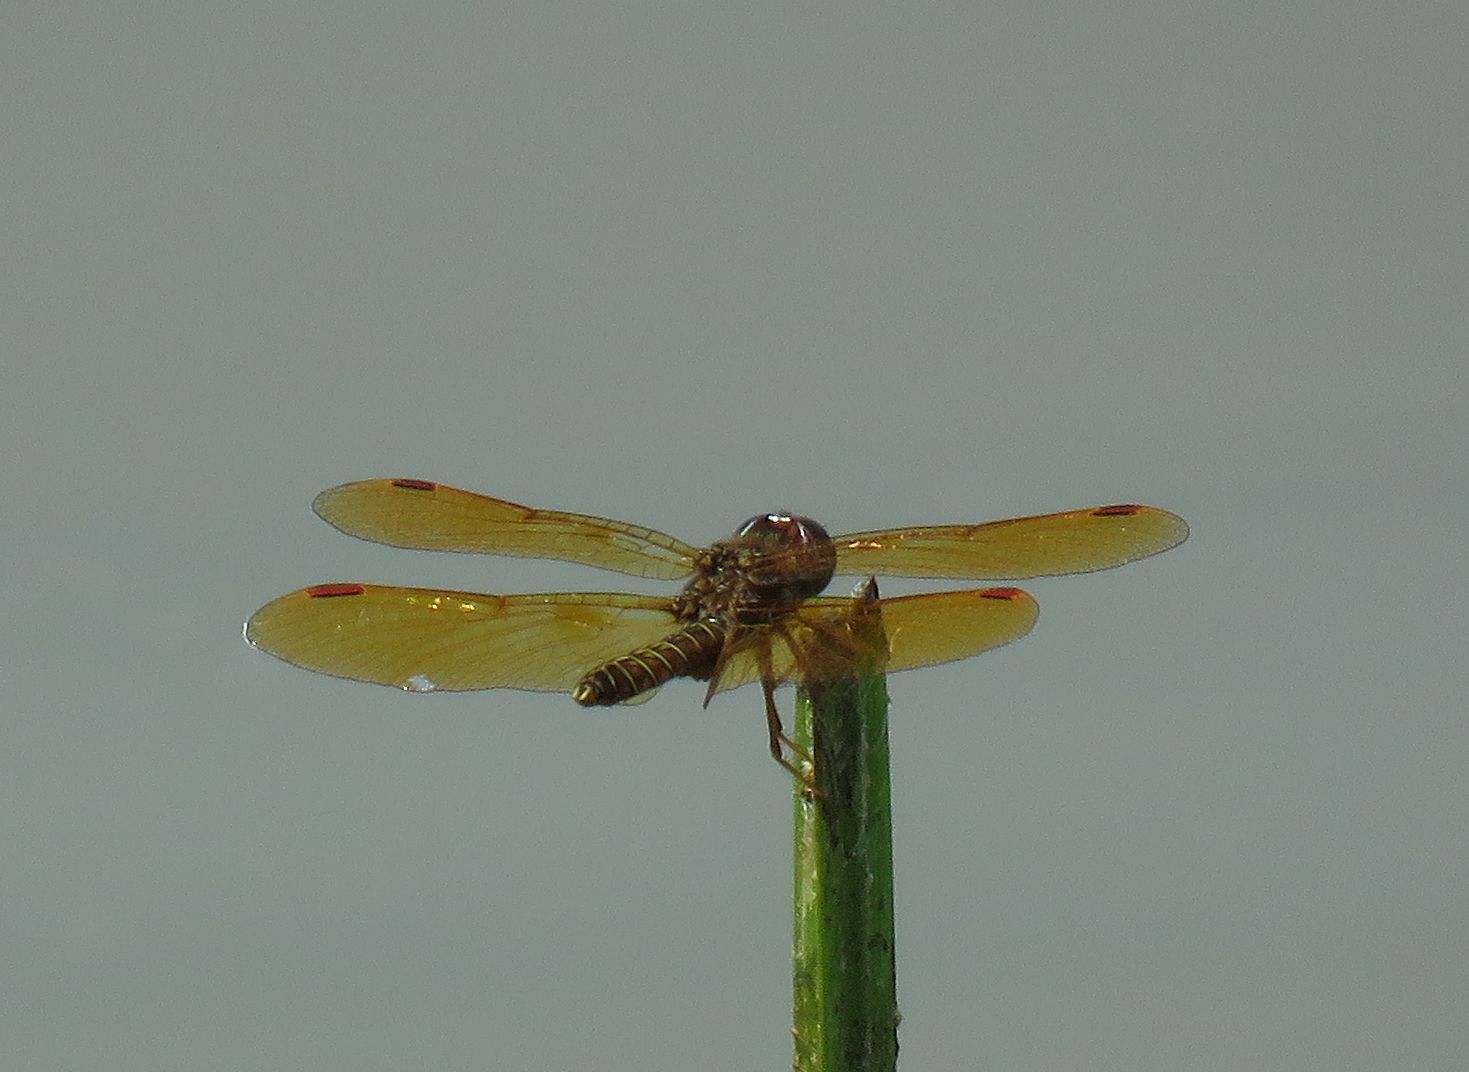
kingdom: Animalia
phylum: Arthropoda
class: Insecta
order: Odonata
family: Libellulidae
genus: Perithemis
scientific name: Perithemis tenera
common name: Eastern amberwing
